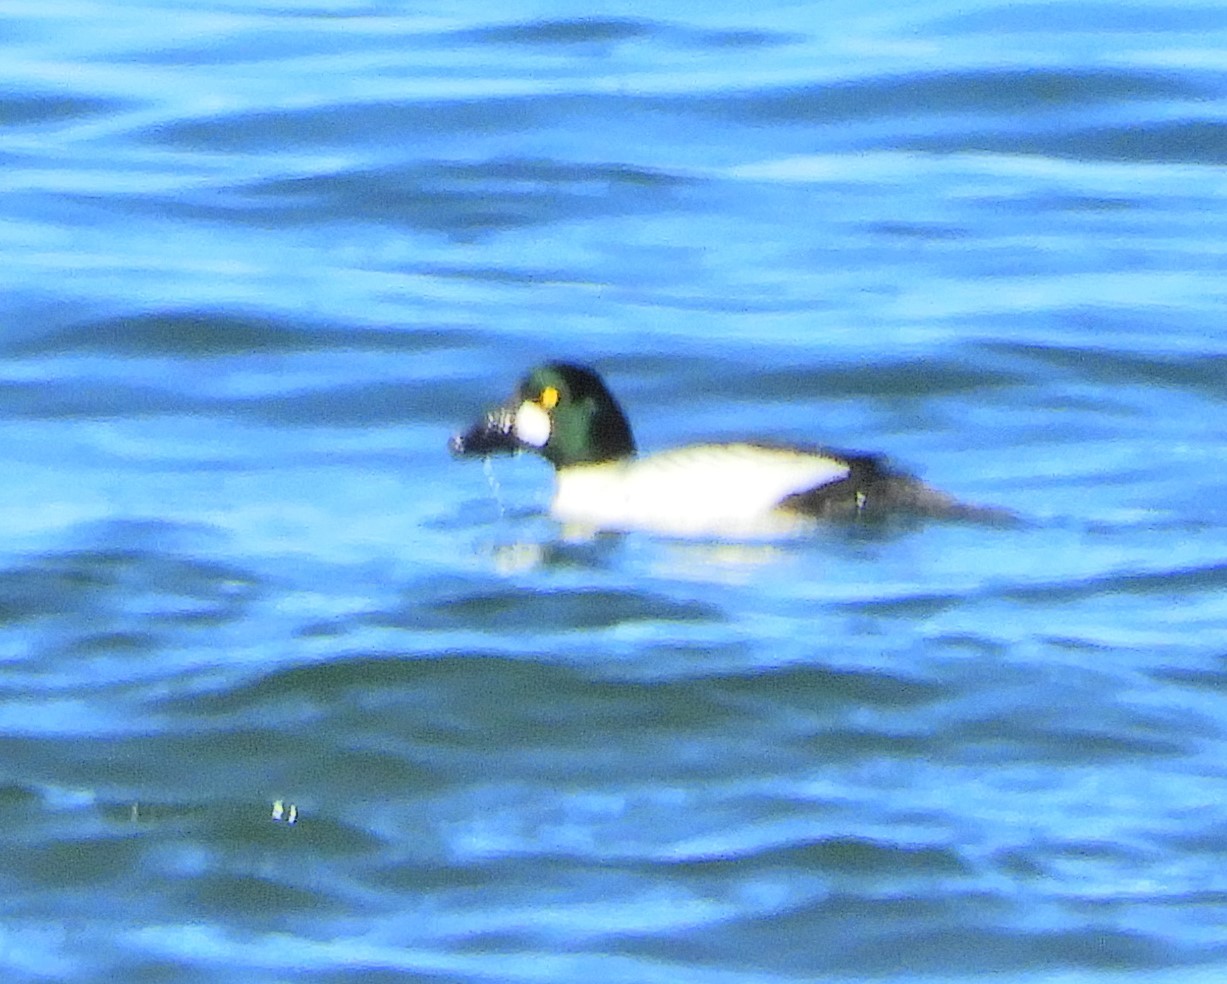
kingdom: Animalia
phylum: Chordata
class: Aves
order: Anseriformes
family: Anatidae
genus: Bucephala
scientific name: Bucephala clangula
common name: Common goldeneye
